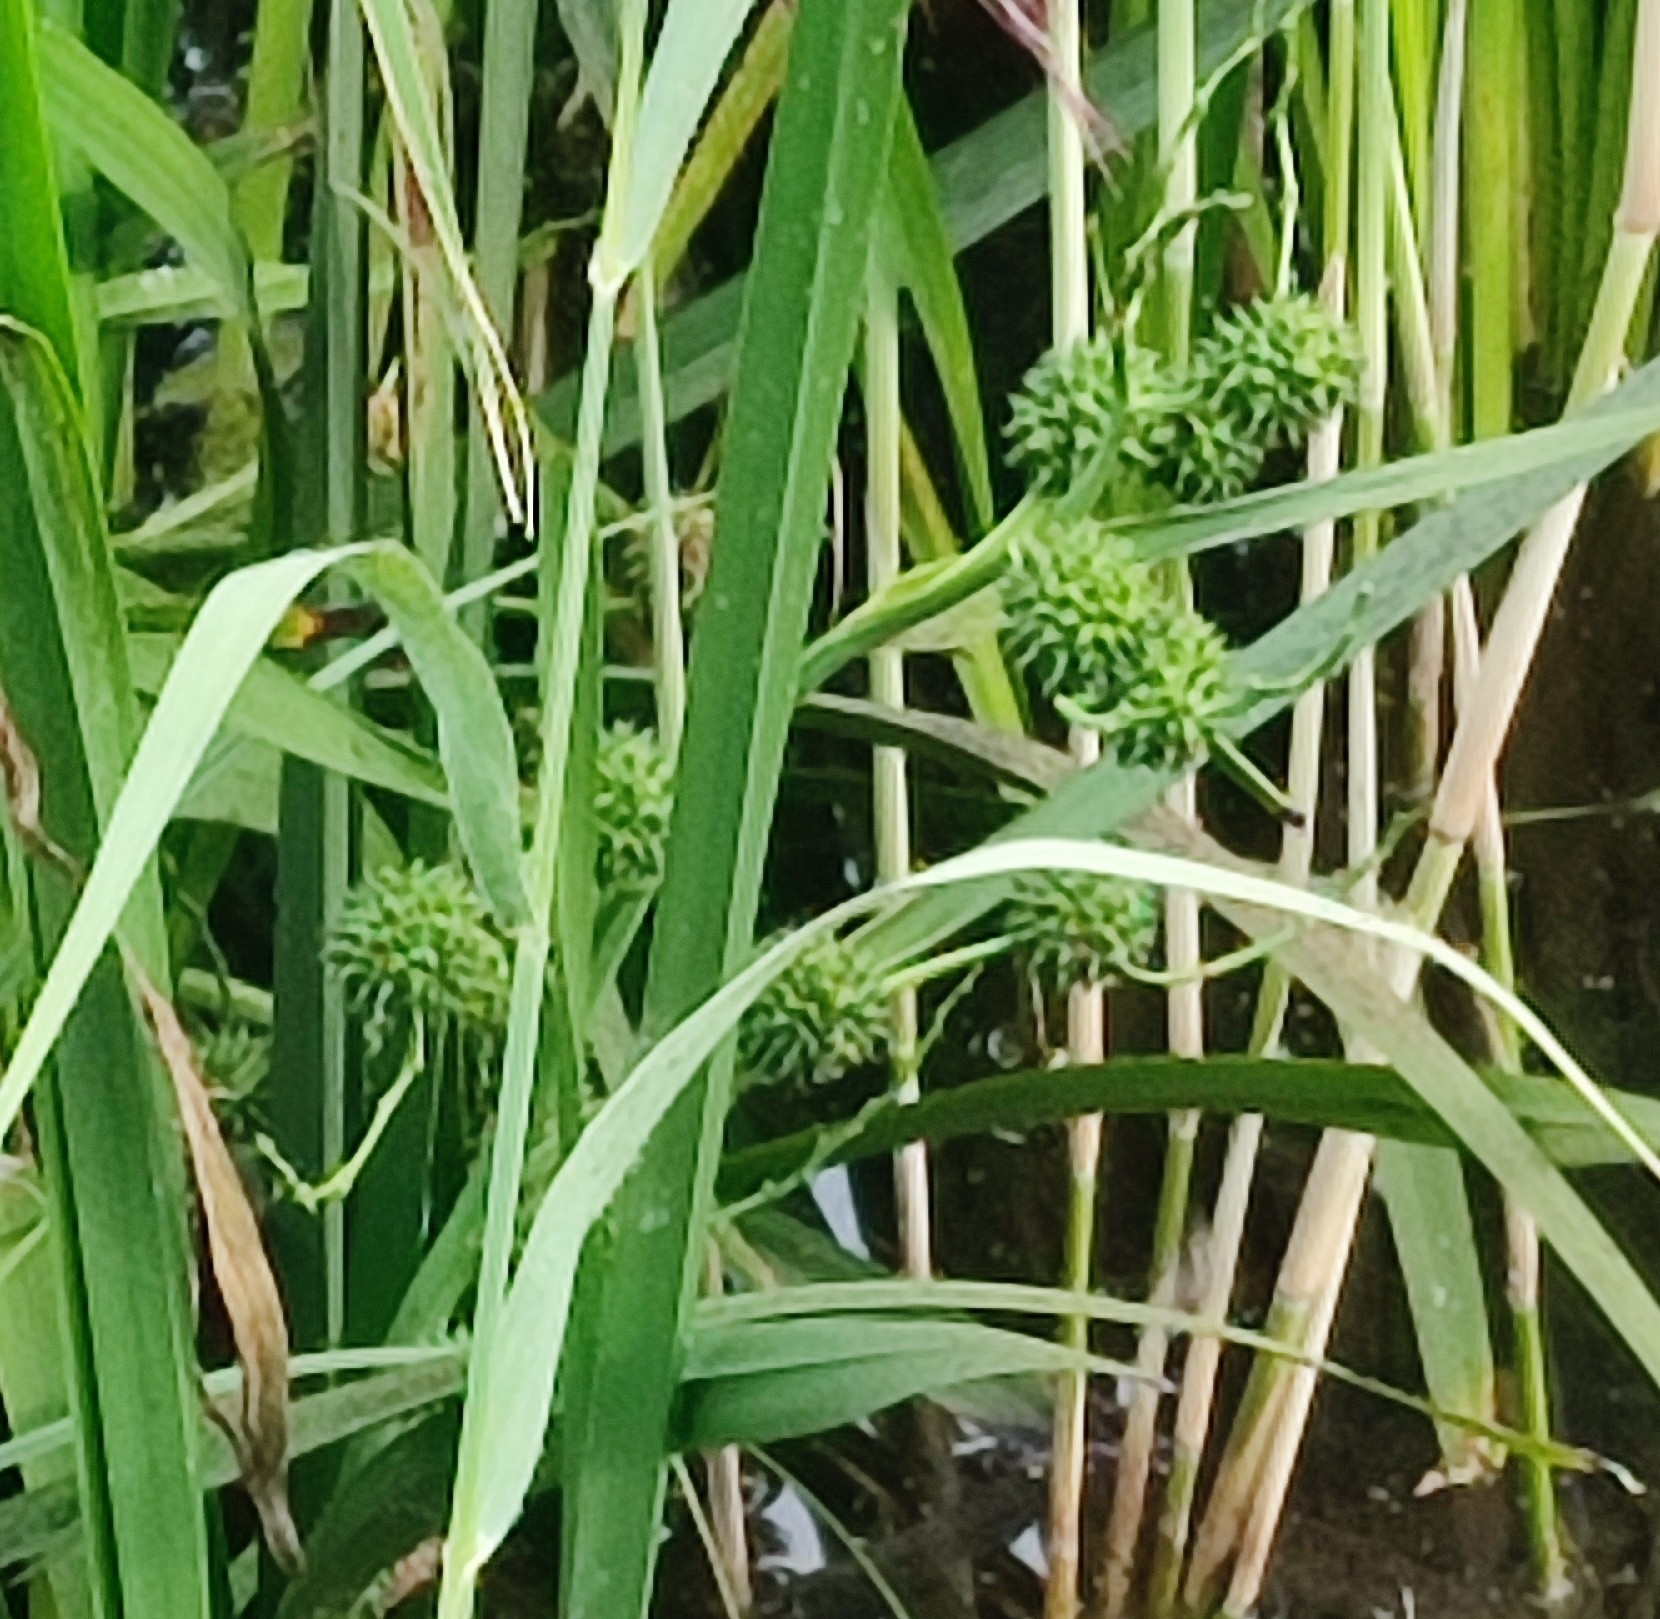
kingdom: Plantae
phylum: Tracheophyta
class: Liliopsida
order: Poales
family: Typhaceae
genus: Sparganium
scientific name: Sparganium erectum
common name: Branched bur-reed
